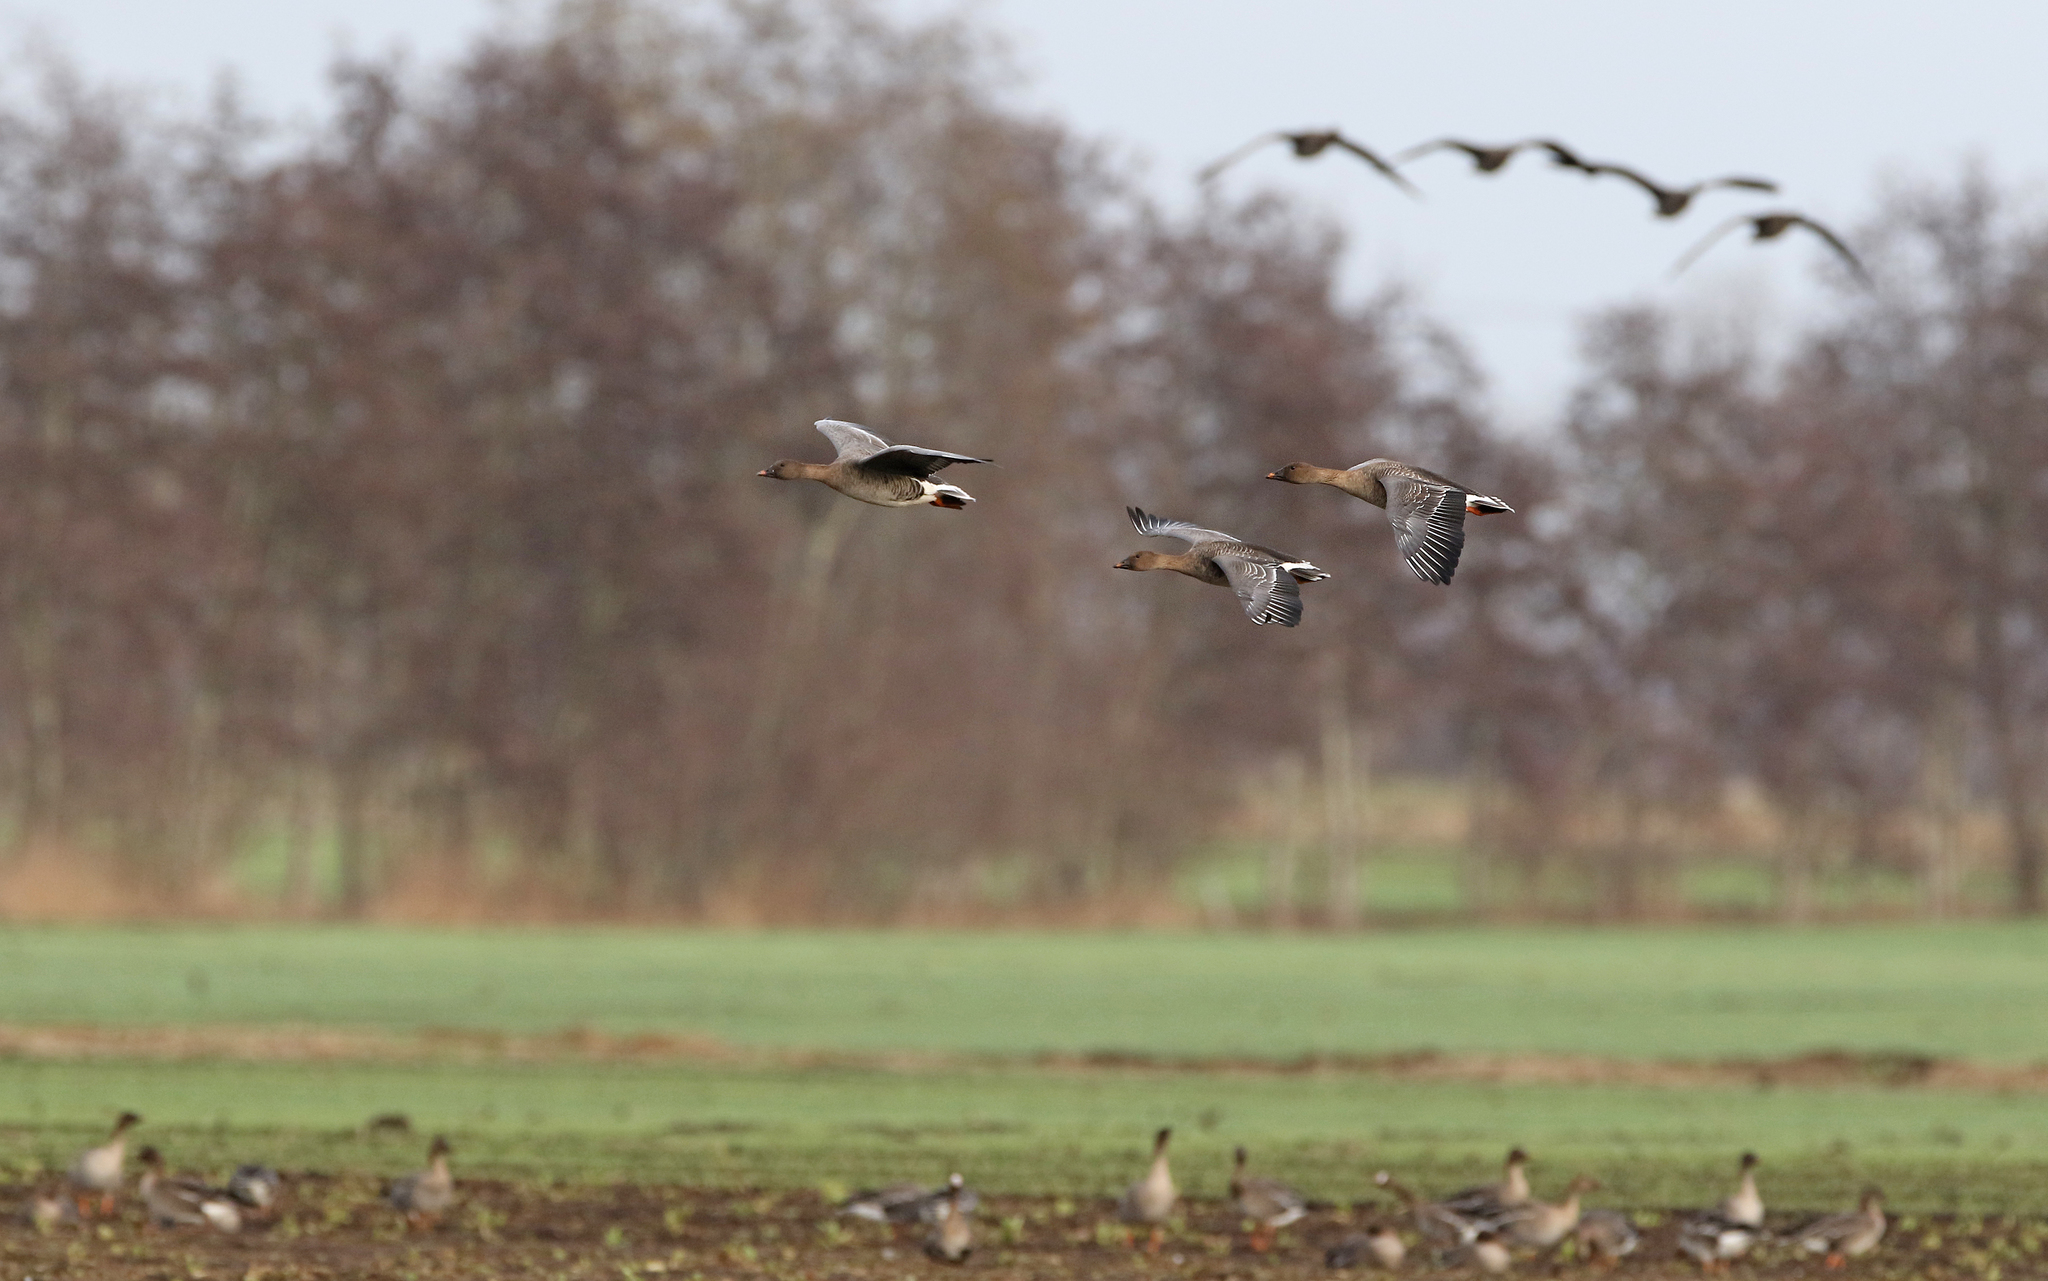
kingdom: Animalia
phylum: Chordata
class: Aves
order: Anseriformes
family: Anatidae
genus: Anser
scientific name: Anser serrirostris
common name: Tundra bean goose
